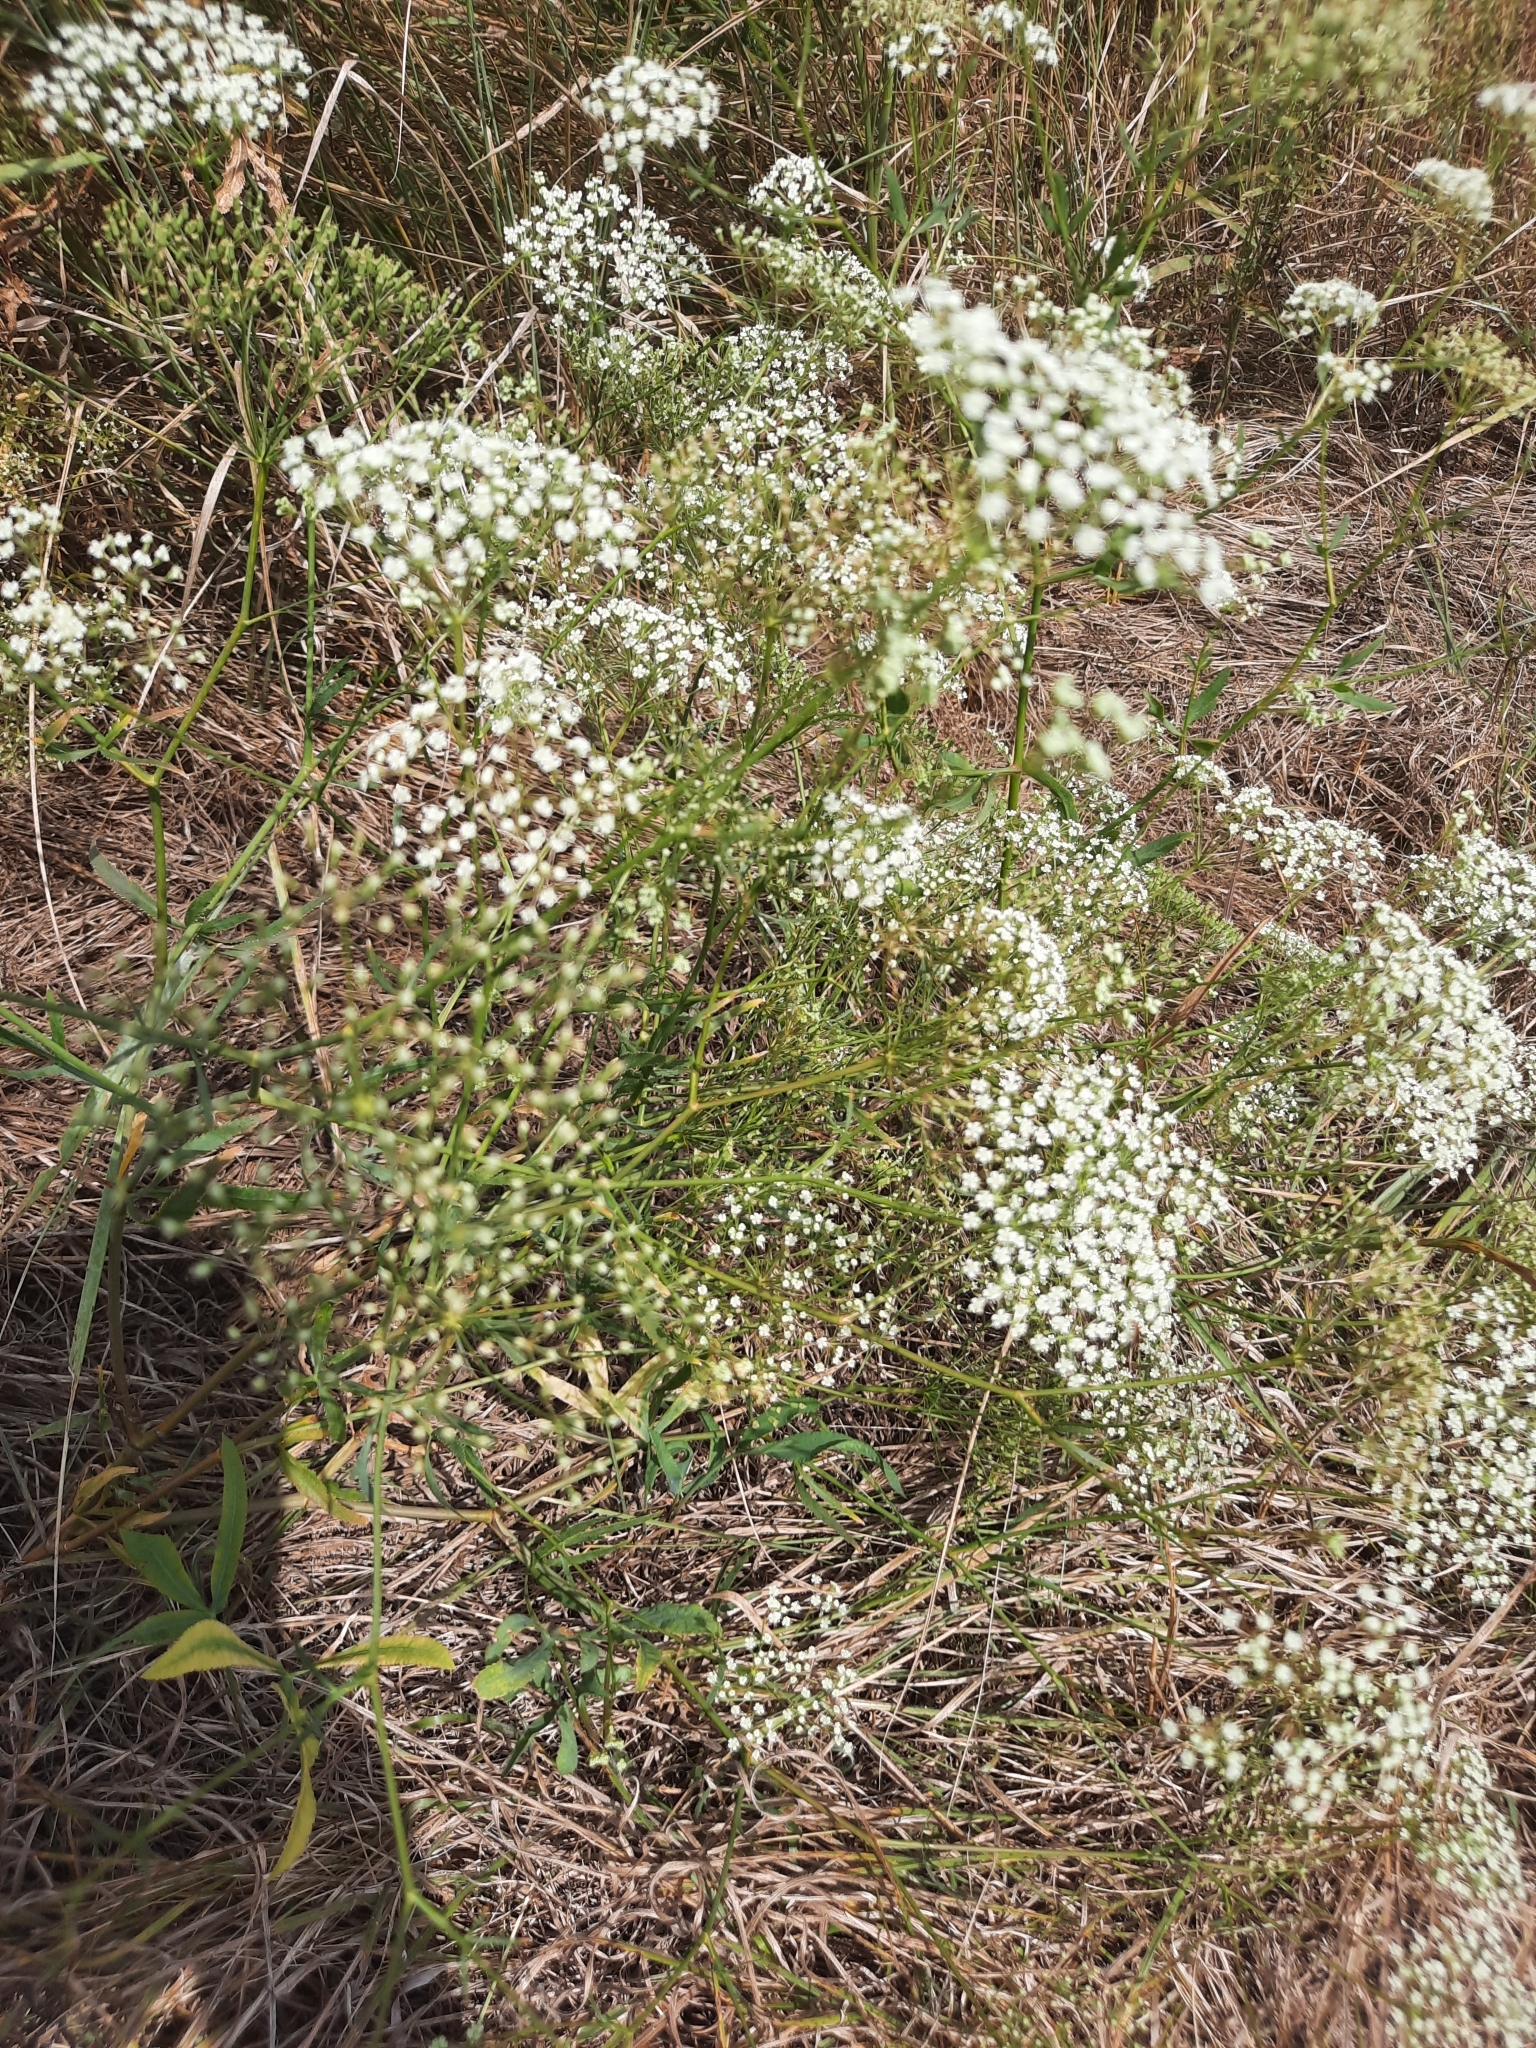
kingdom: Plantae
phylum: Tracheophyta
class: Magnoliopsida
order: Apiales
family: Apiaceae
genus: Falcaria
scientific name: Falcaria vulgaris
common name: Longleaf
